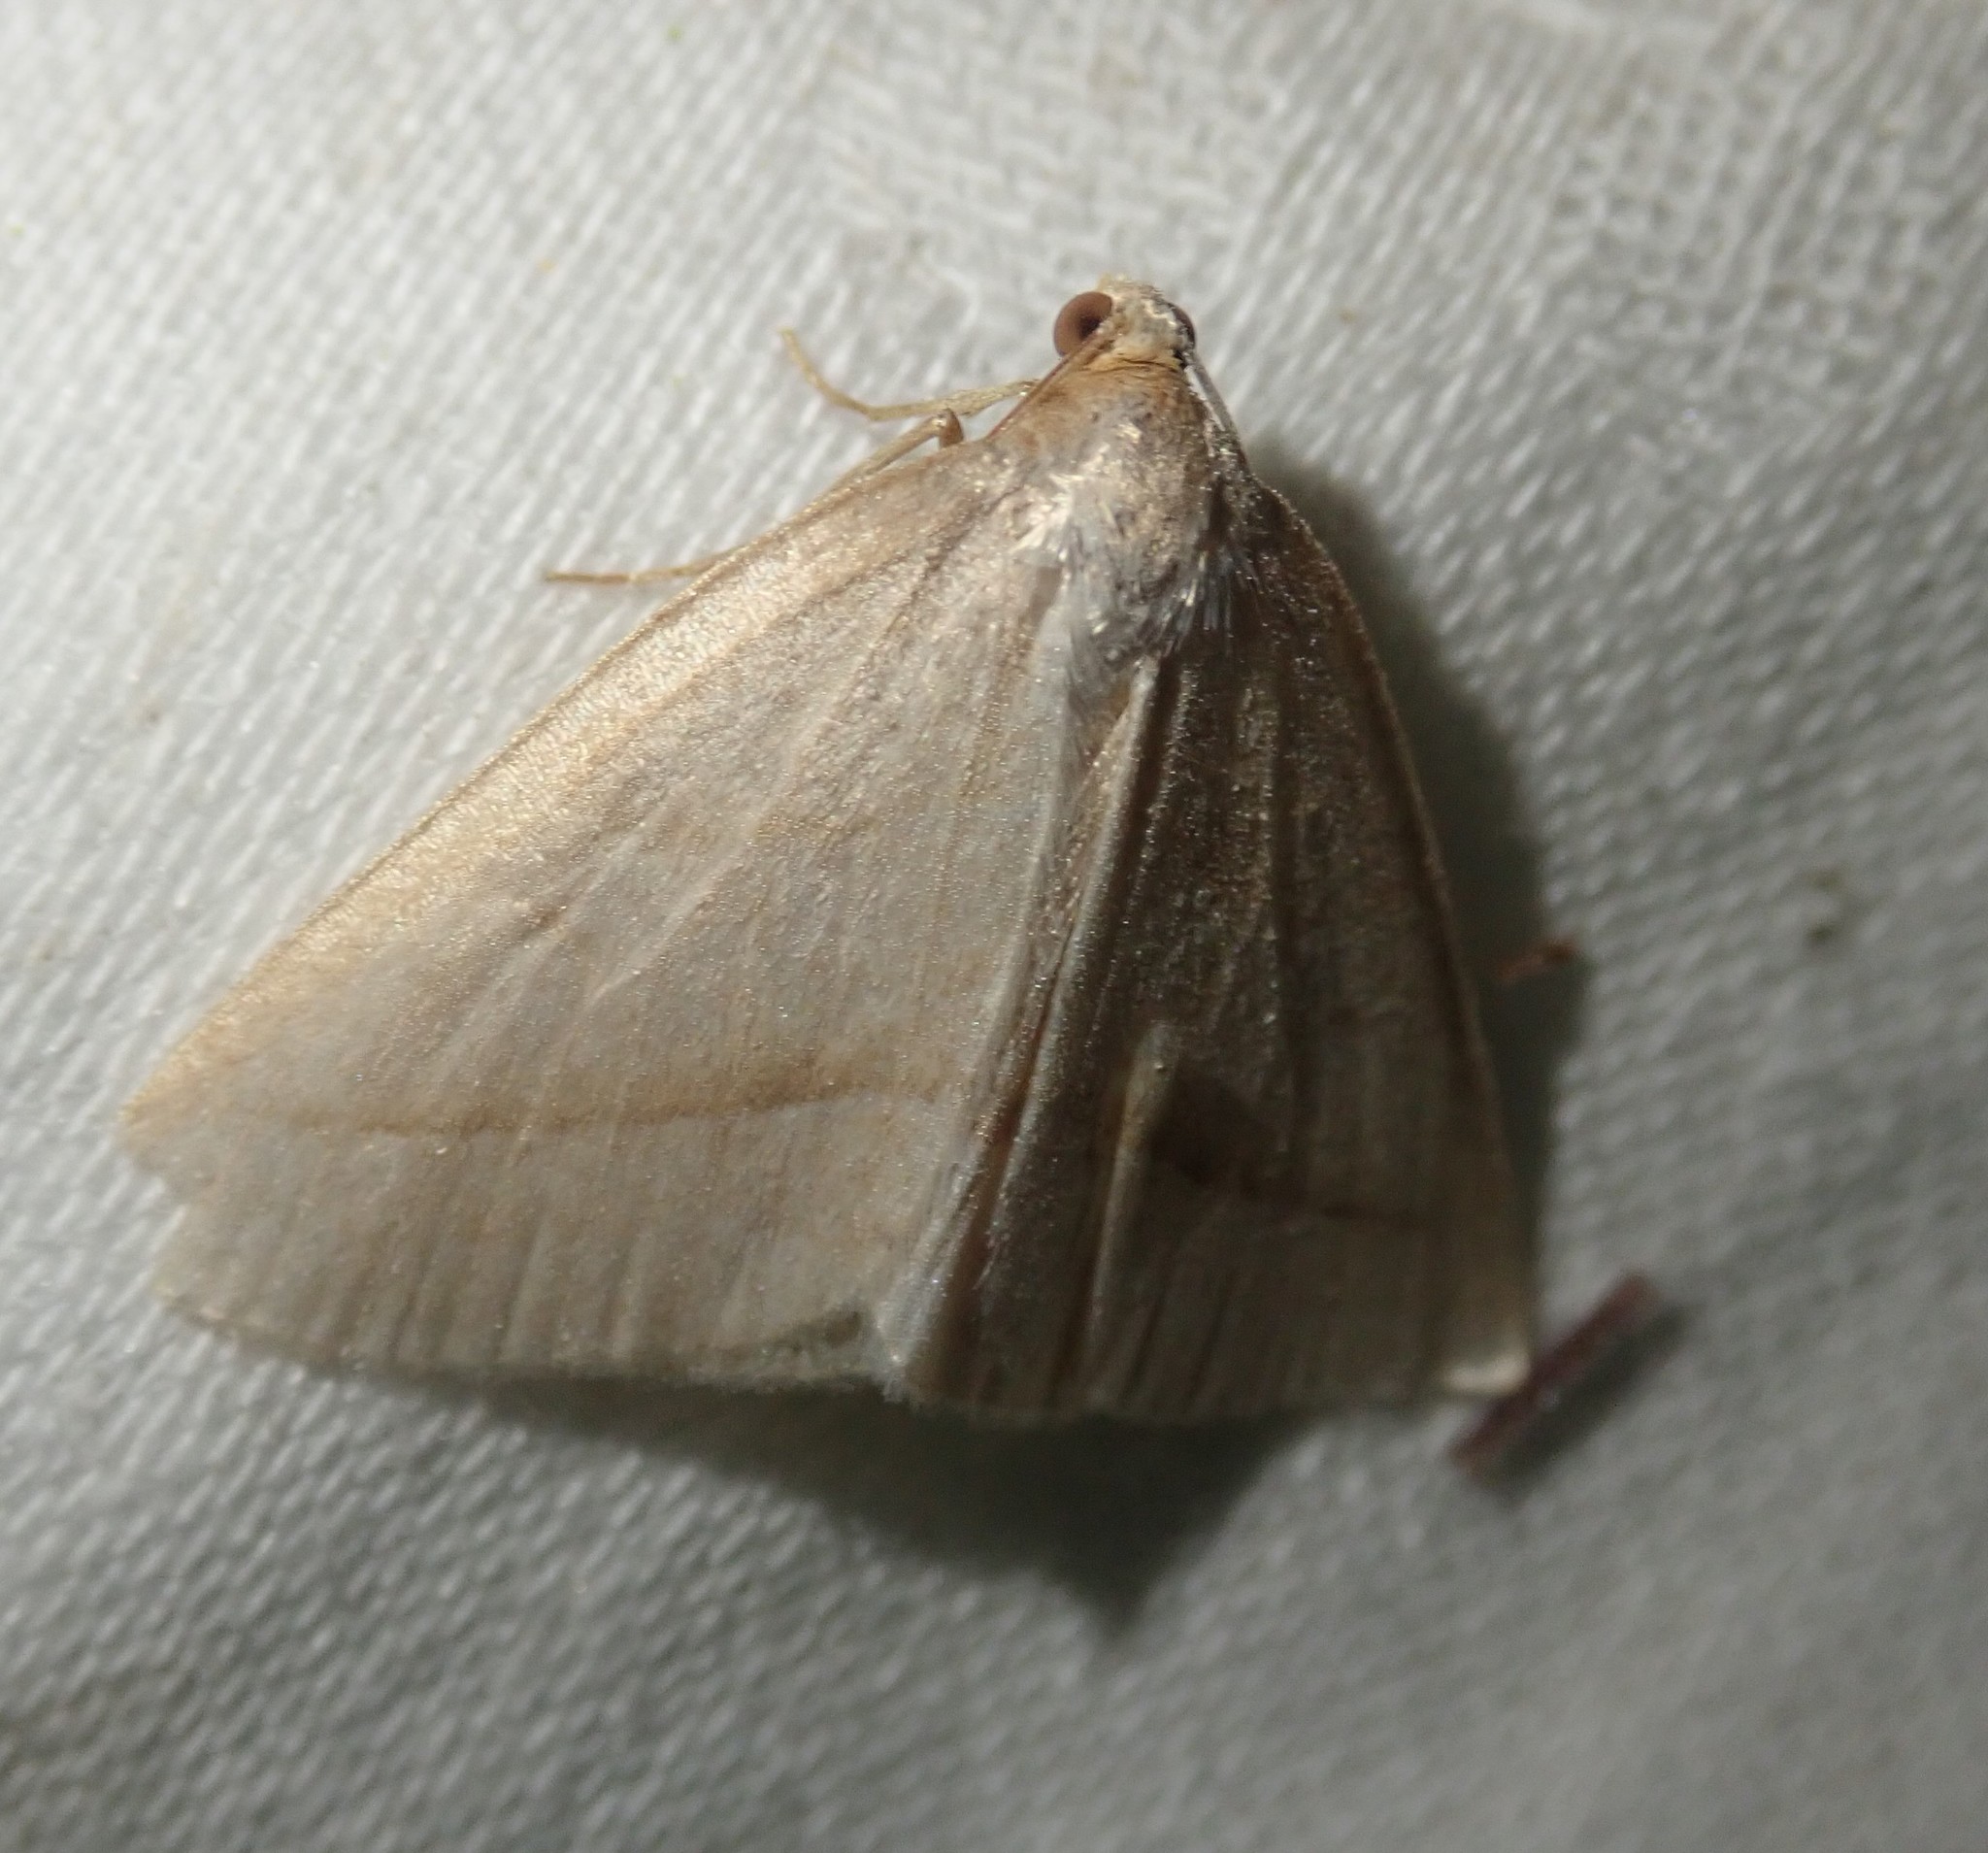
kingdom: Animalia
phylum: Arthropoda
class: Insecta
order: Lepidoptera
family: Pterophoridae
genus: Pterophorus
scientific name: Pterophorus Petrophora chlorosata
